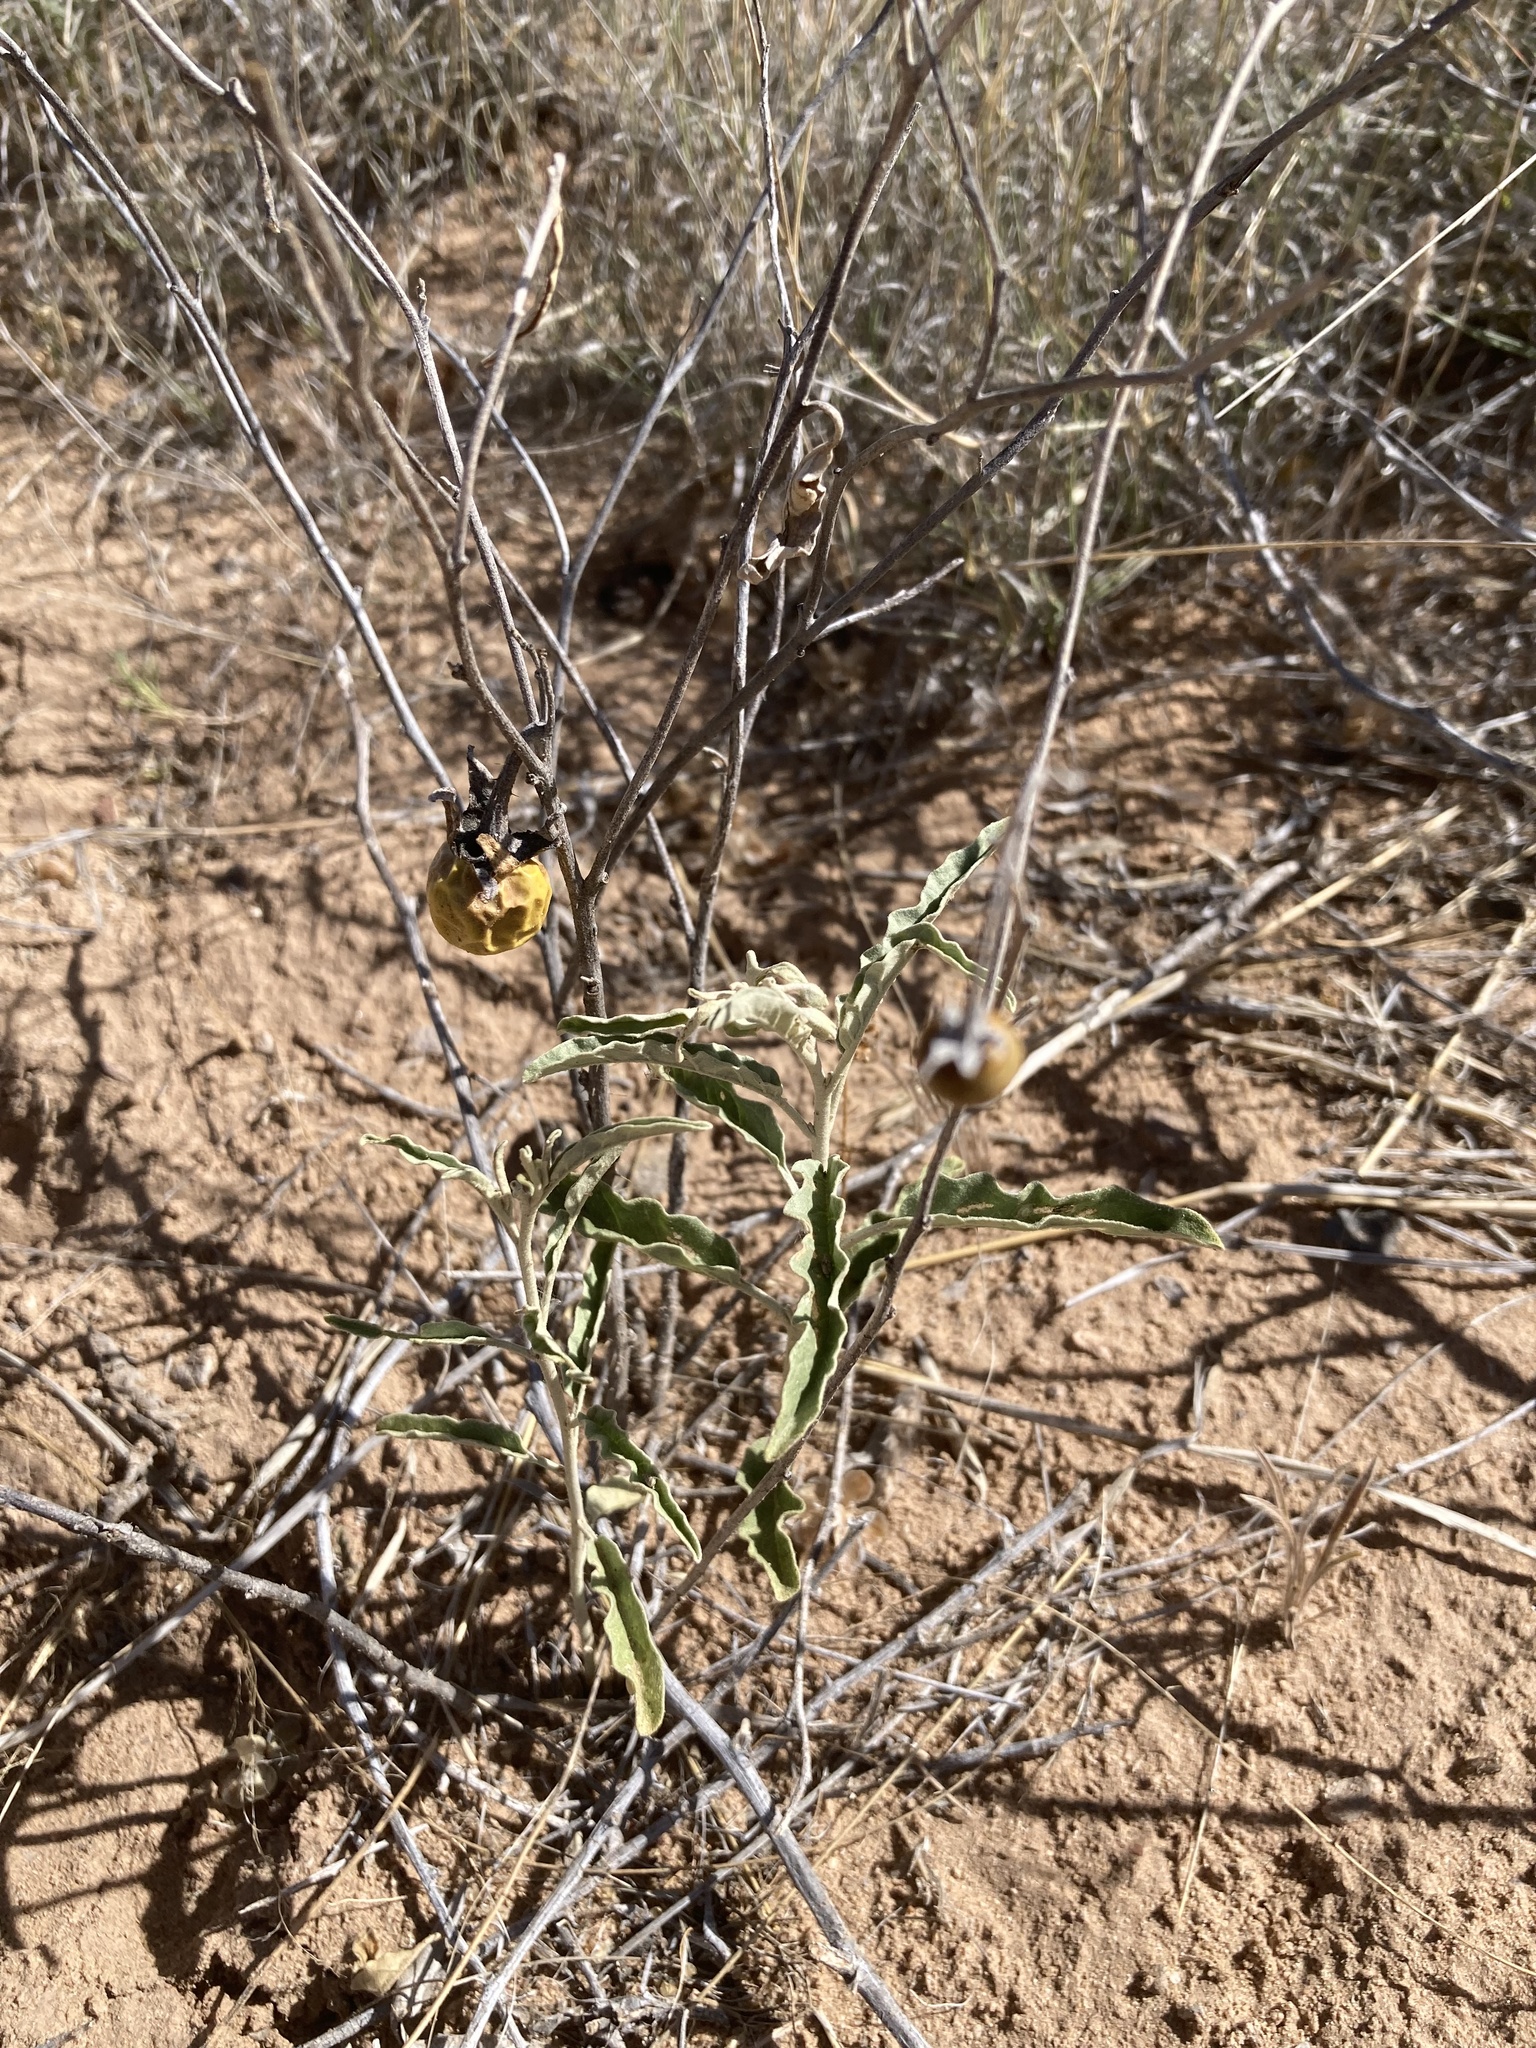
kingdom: Plantae
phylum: Tracheophyta
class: Magnoliopsida
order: Solanales
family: Solanaceae
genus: Solanum
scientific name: Solanum elaeagnifolium
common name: Silverleaf nightshade
